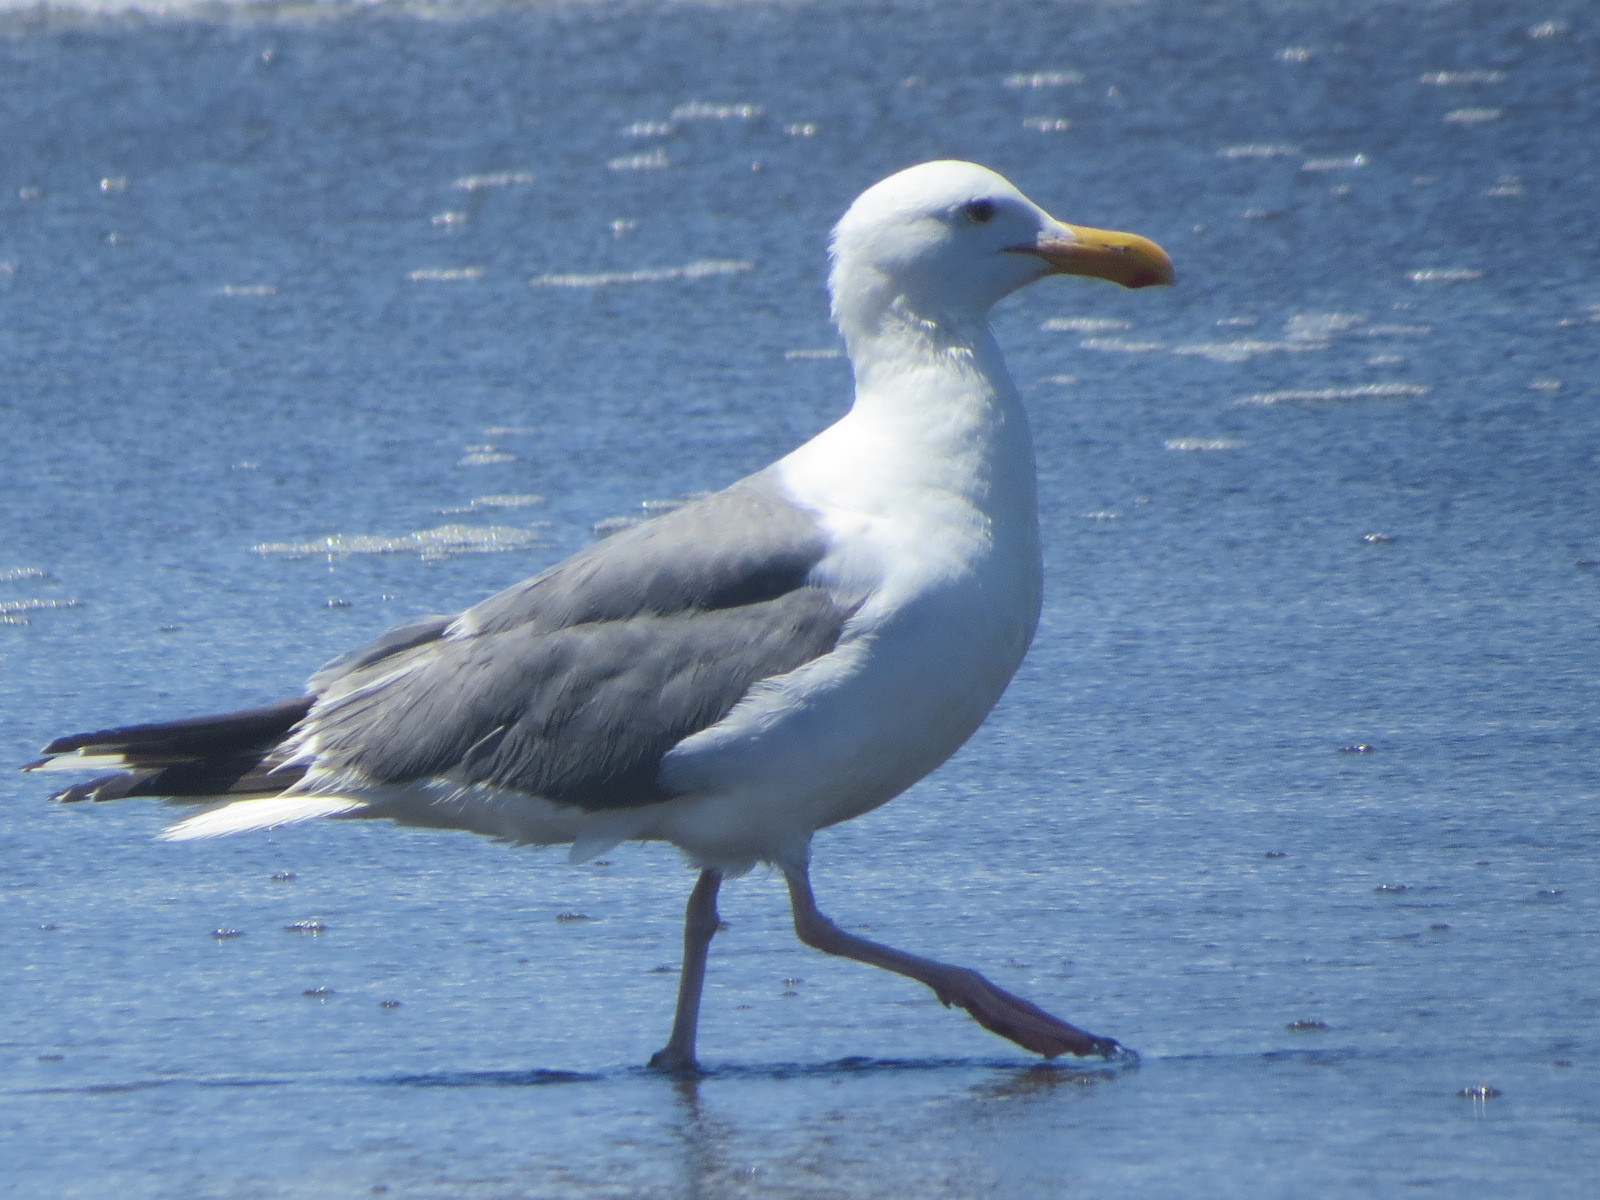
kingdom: Animalia
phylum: Chordata
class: Aves
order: Charadriiformes
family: Laridae
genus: Larus
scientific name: Larus occidentalis
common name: Western gull
